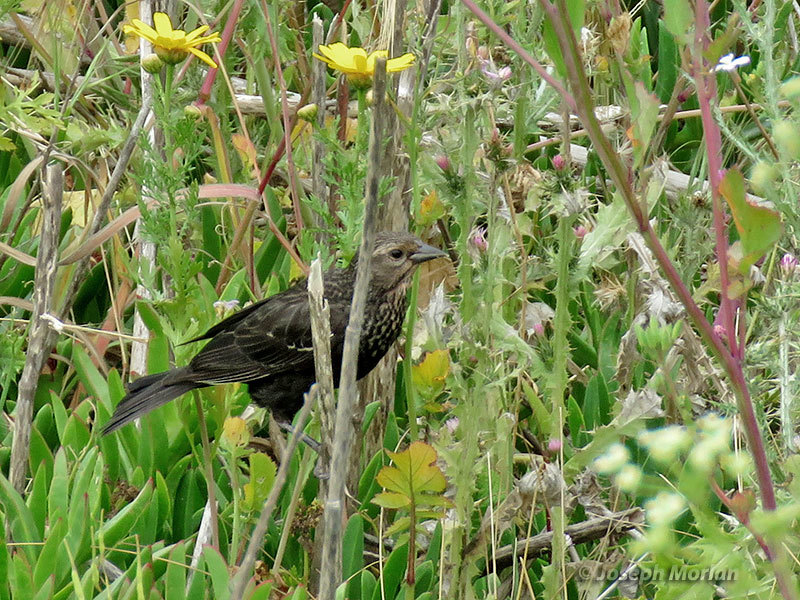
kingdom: Animalia
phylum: Chordata
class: Aves
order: Passeriformes
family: Icteridae
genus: Agelaius
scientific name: Agelaius phoeniceus
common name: Red-winged blackbird
